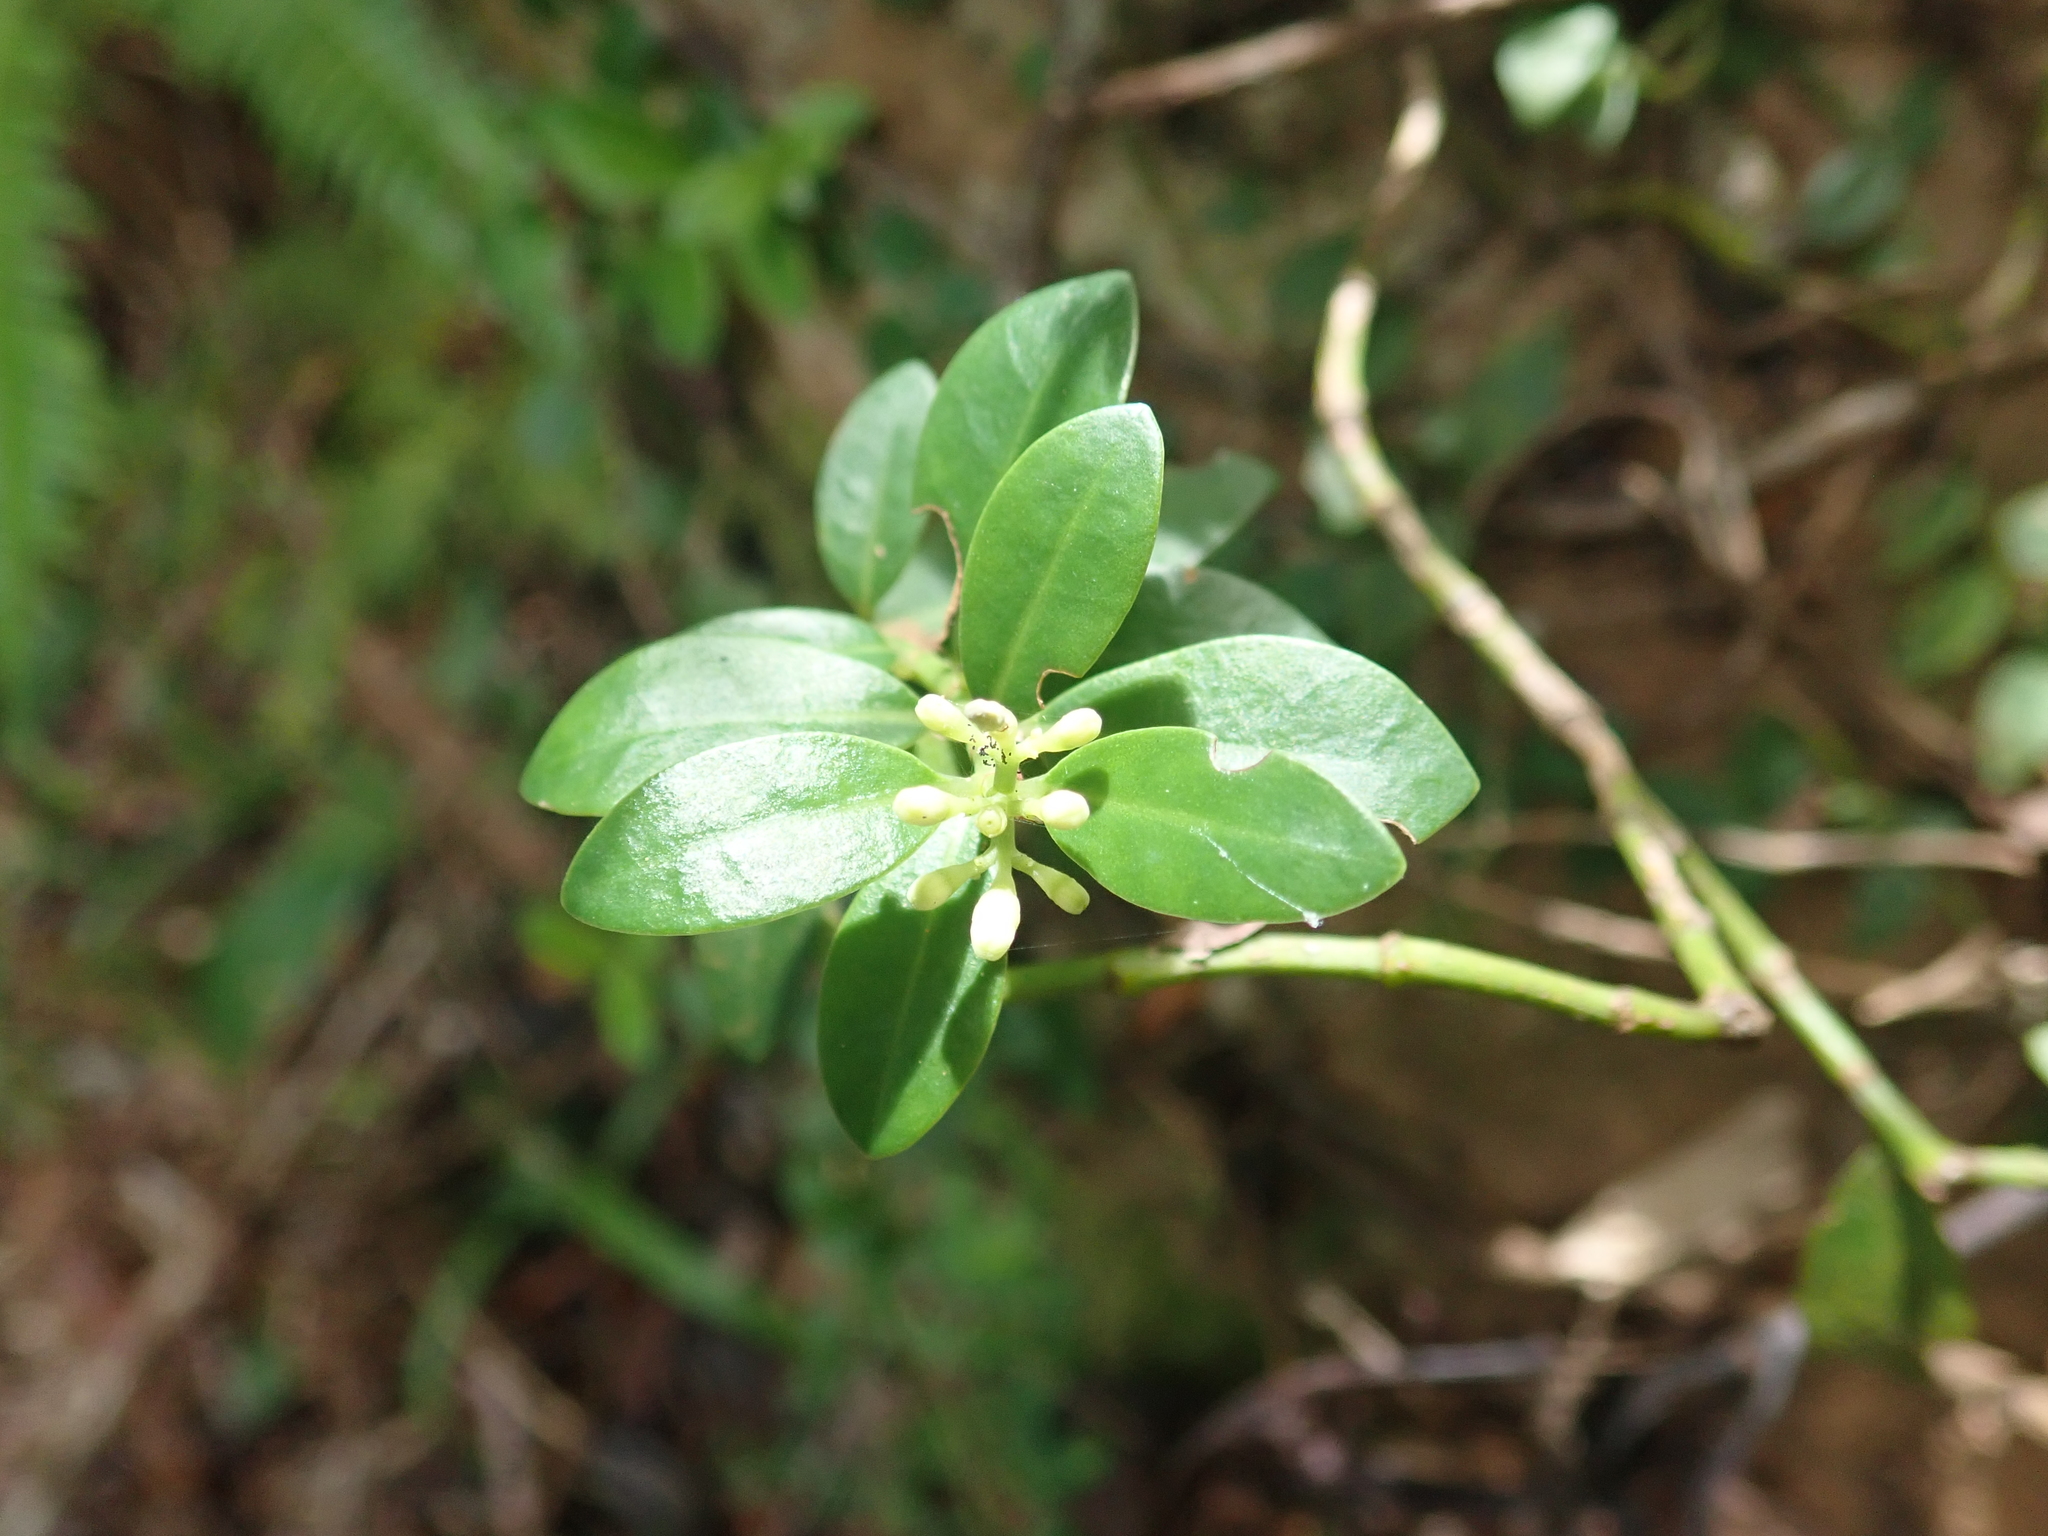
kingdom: Plantae
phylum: Tracheophyta
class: Magnoliopsida
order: Gentianales
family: Rubiaceae
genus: Psychotria
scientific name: Psychotria serpens
